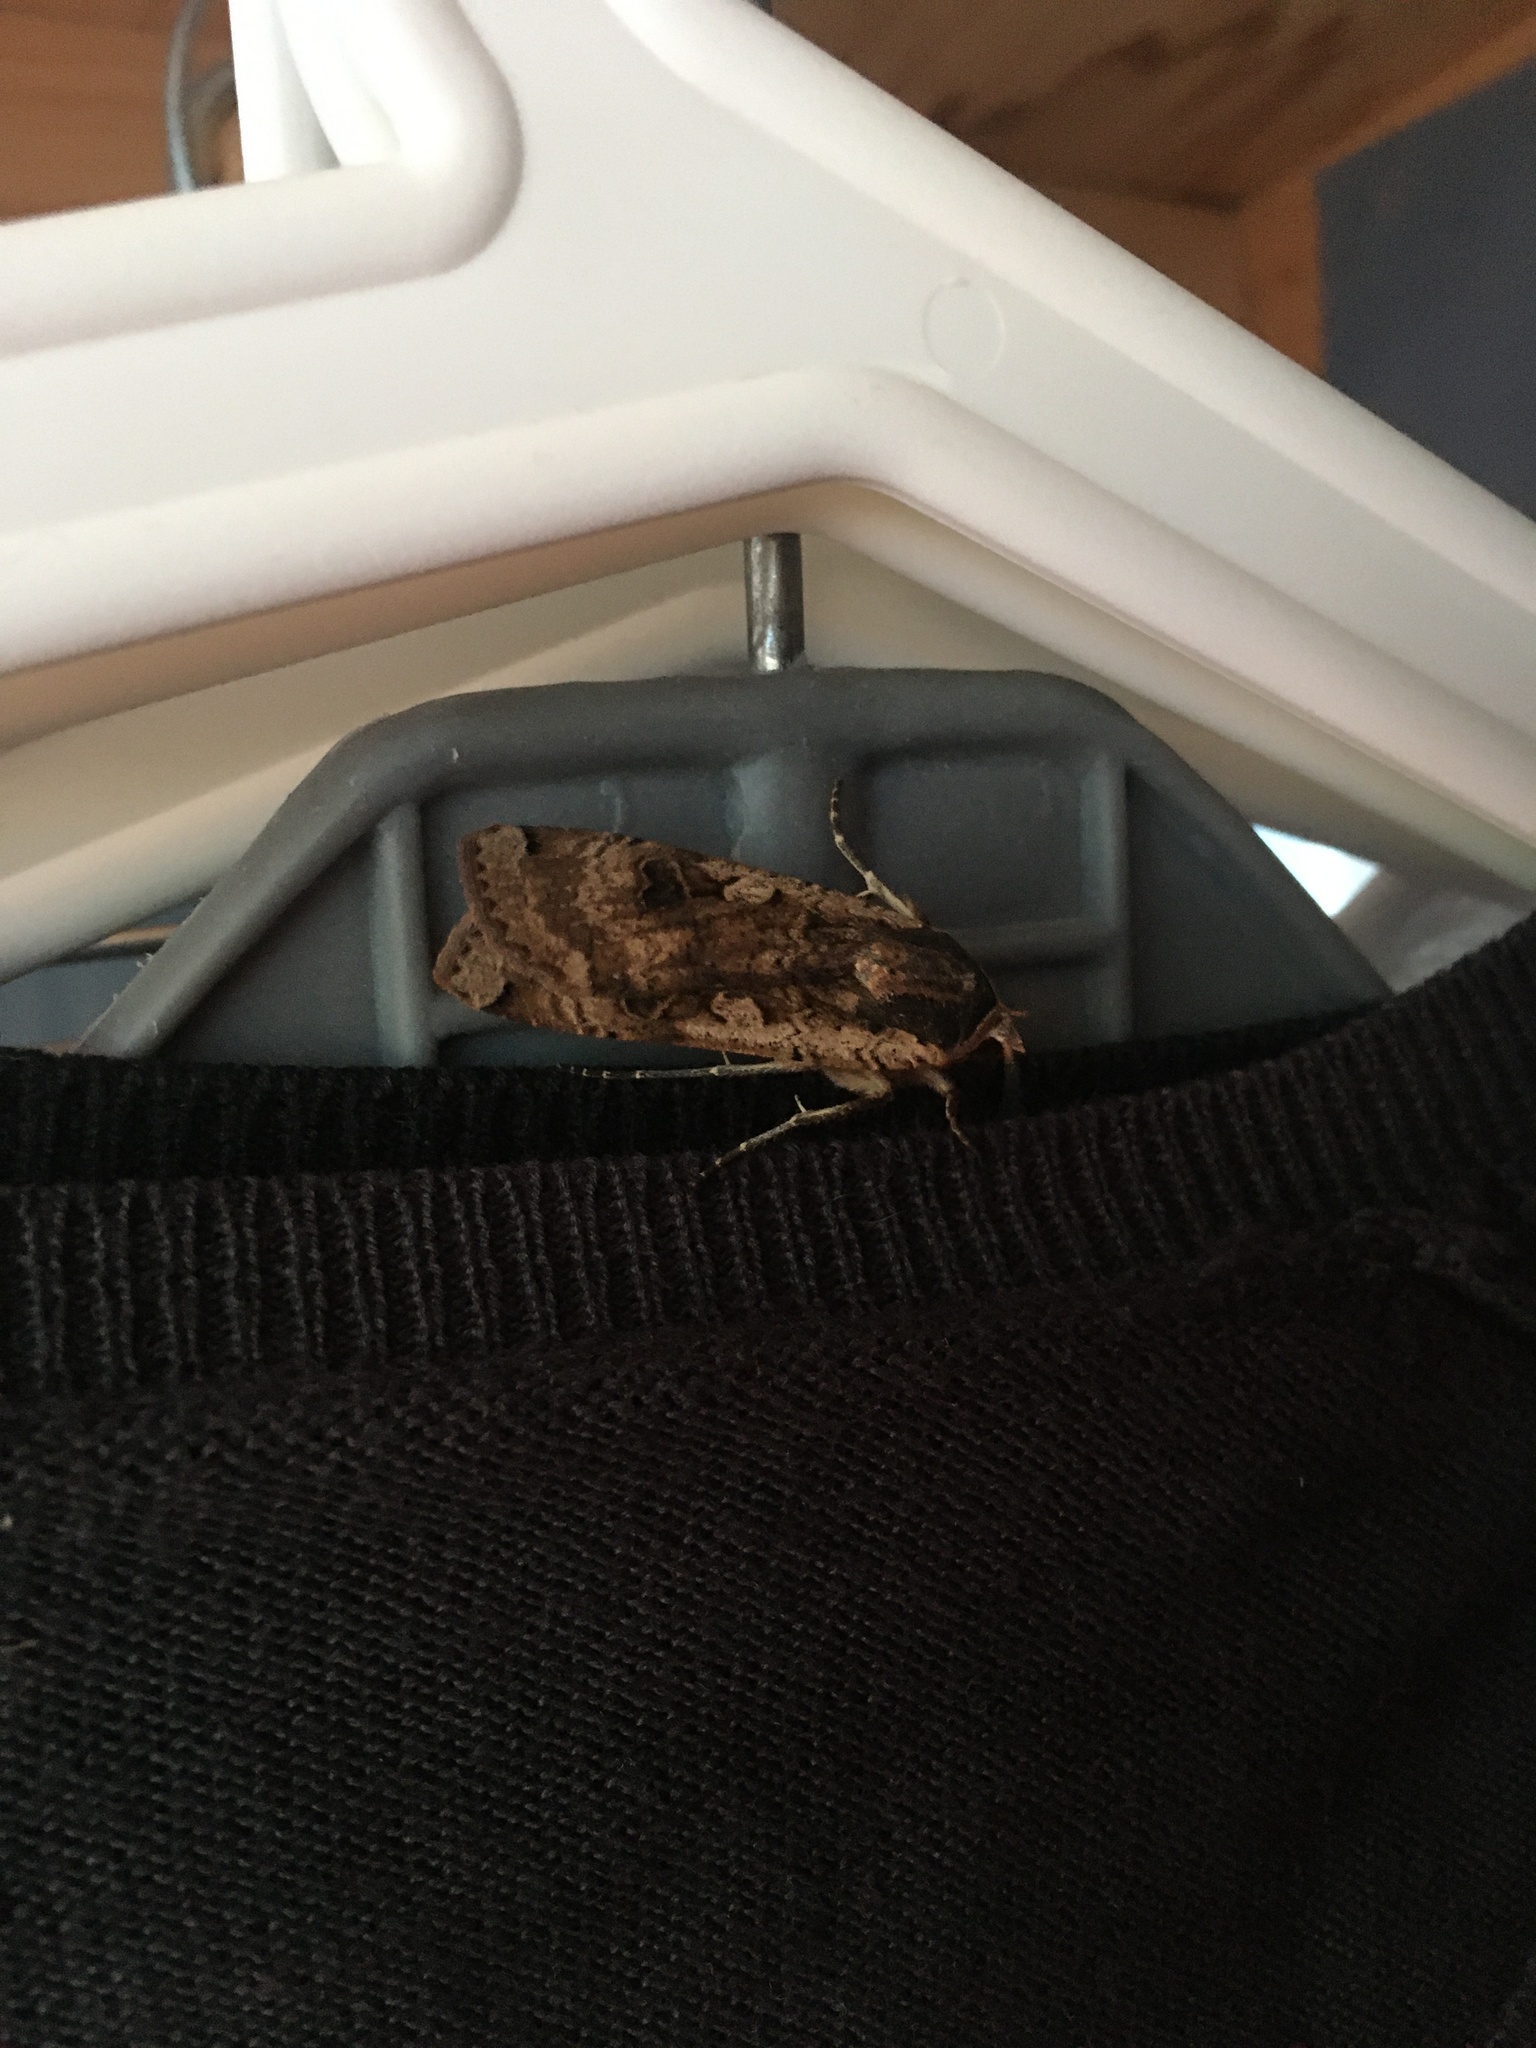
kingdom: Animalia
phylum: Arthropoda
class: Insecta
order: Lepidoptera
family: Noctuidae
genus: Noctua
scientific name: Noctua pronuba
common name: Large yellow underwing
